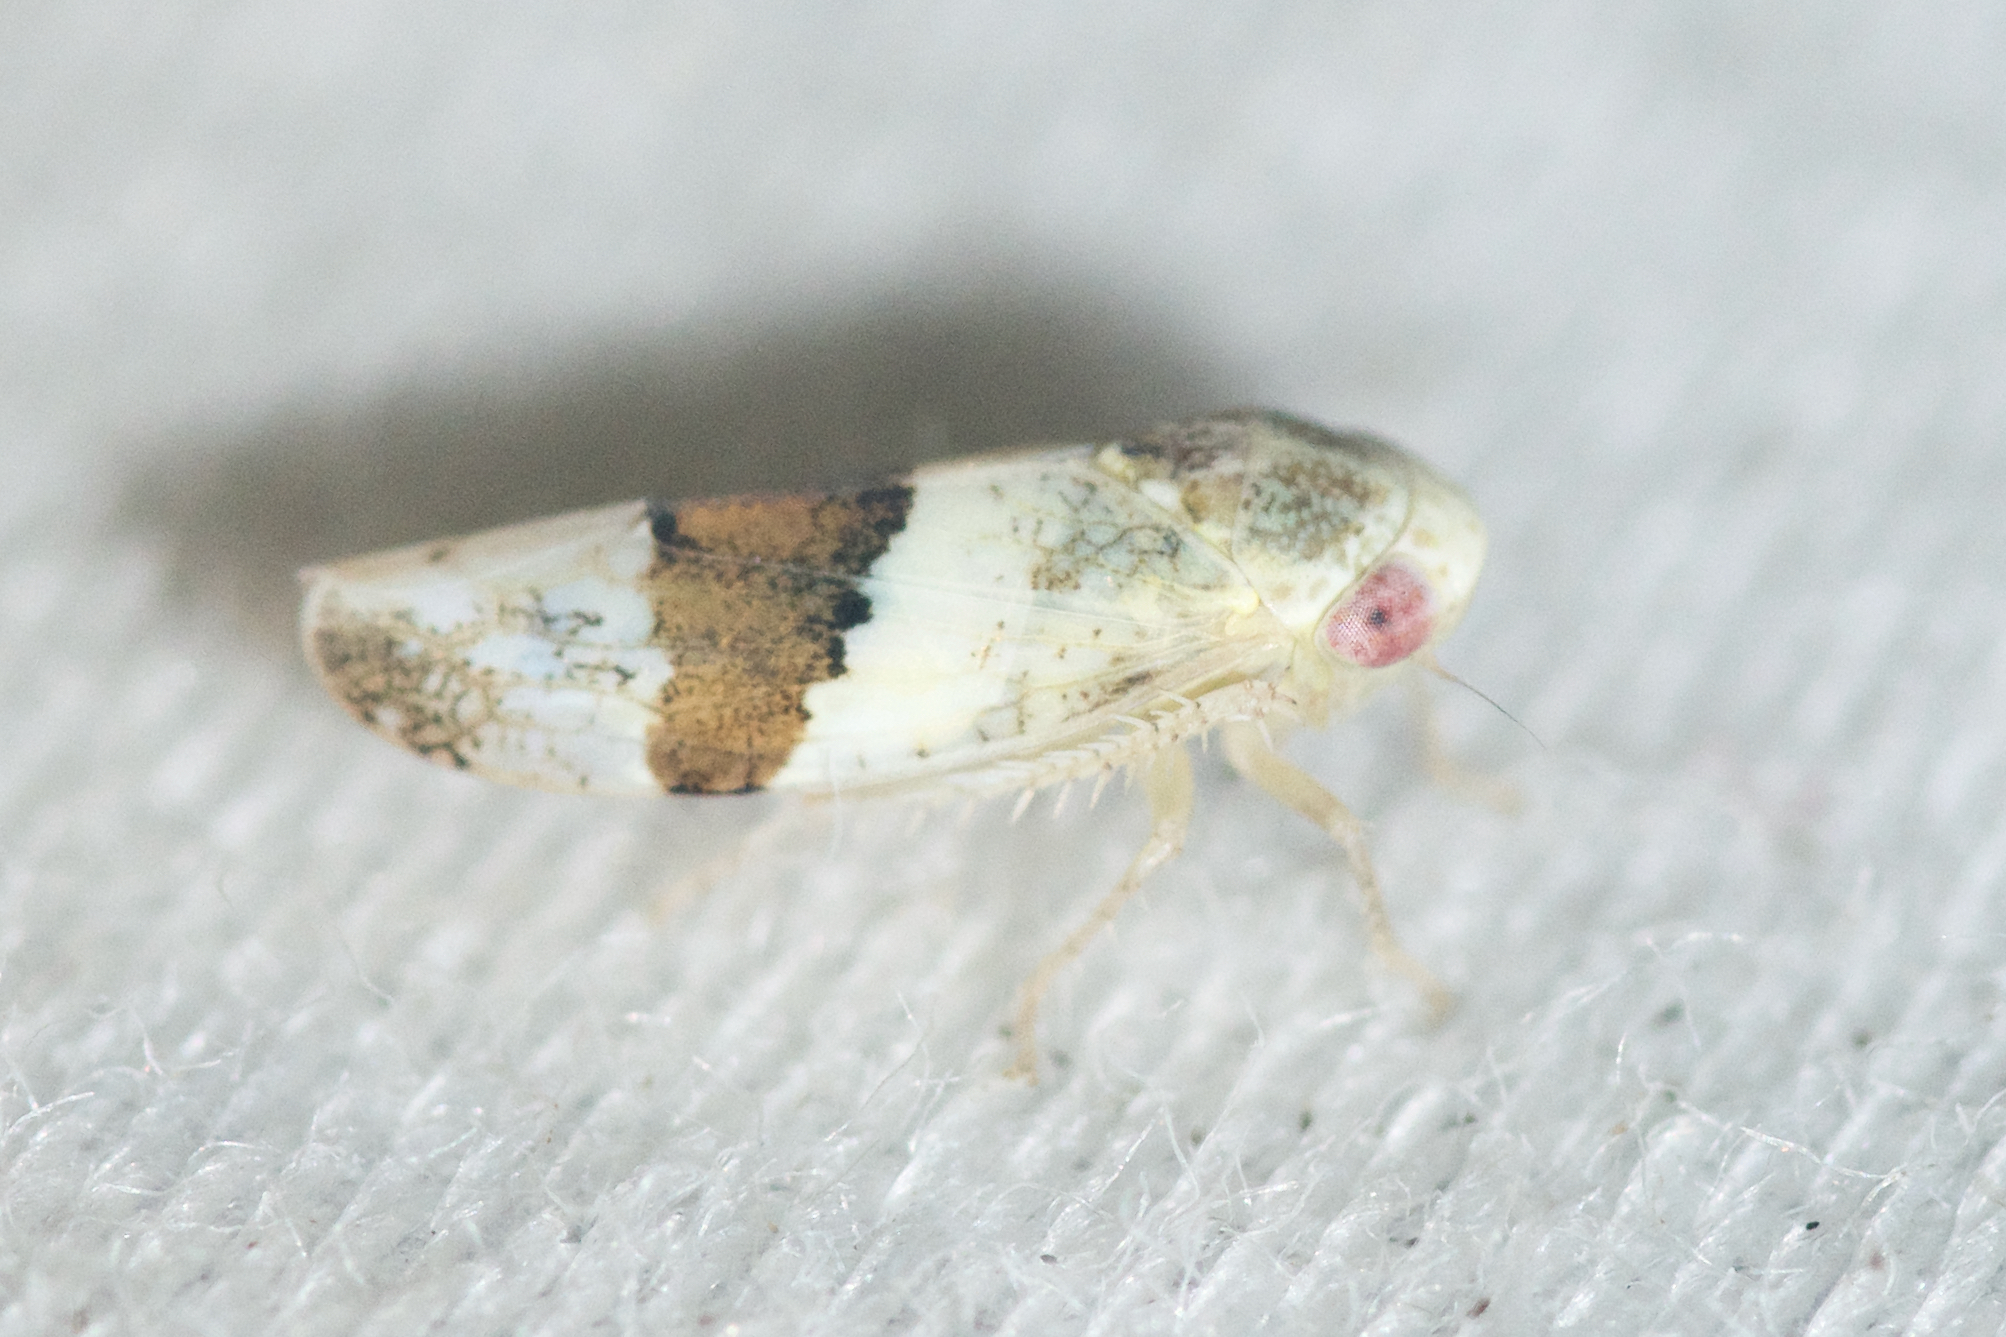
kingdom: Animalia
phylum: Arthropoda
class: Insecta
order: Hemiptera
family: Cicadellidae
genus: Norvellina
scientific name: Norvellina seminuda
